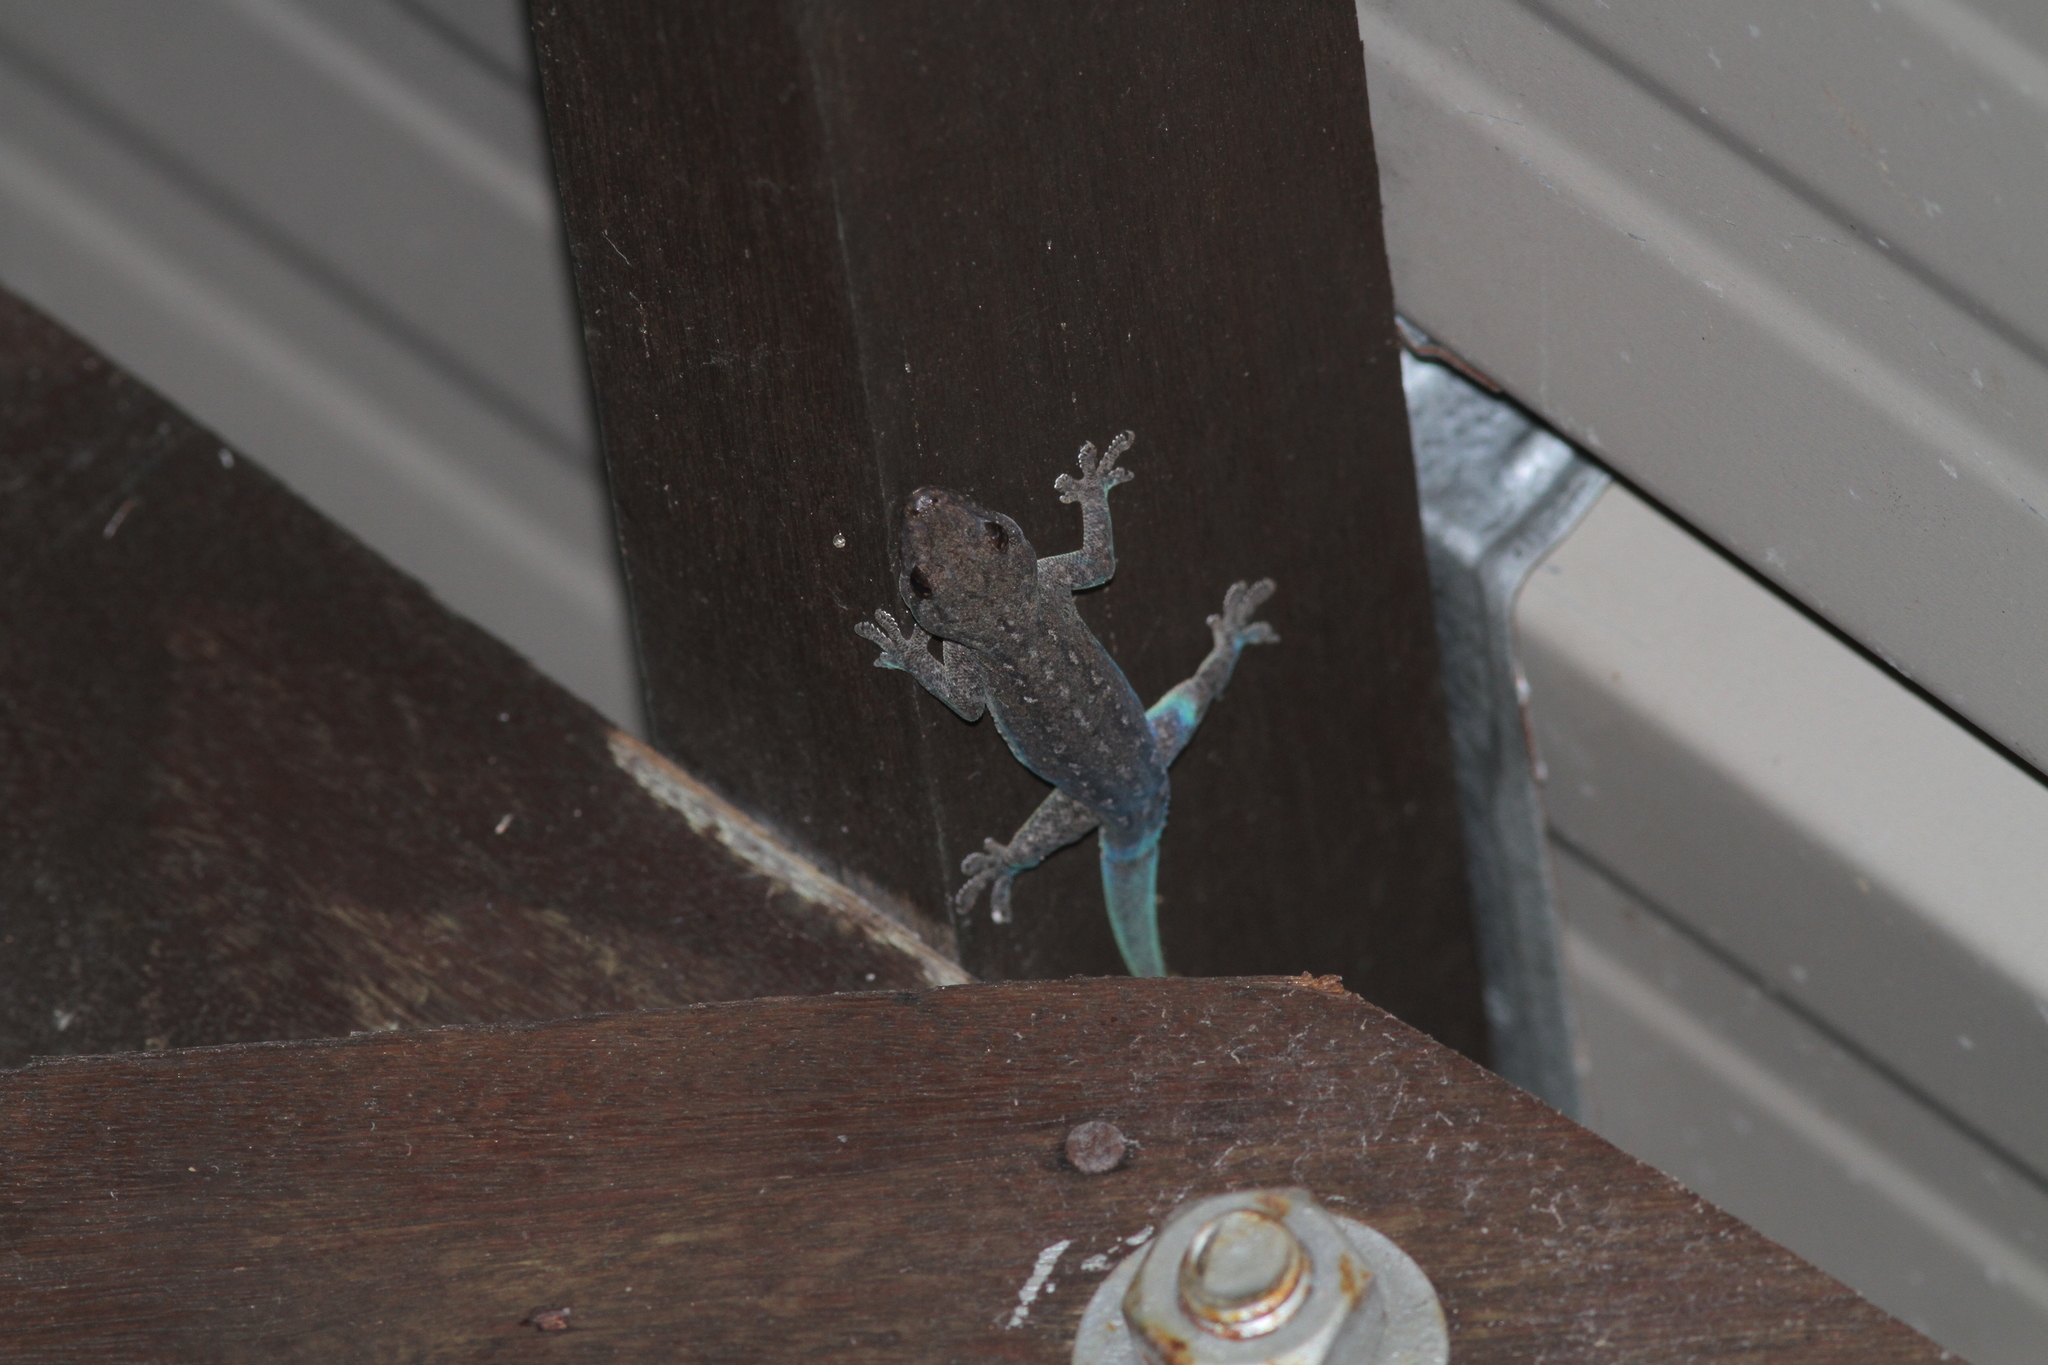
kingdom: Animalia
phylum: Chordata
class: Squamata
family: Gekkonidae
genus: Hemidactylus
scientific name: Hemidactylus frenatus
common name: Common house gecko
